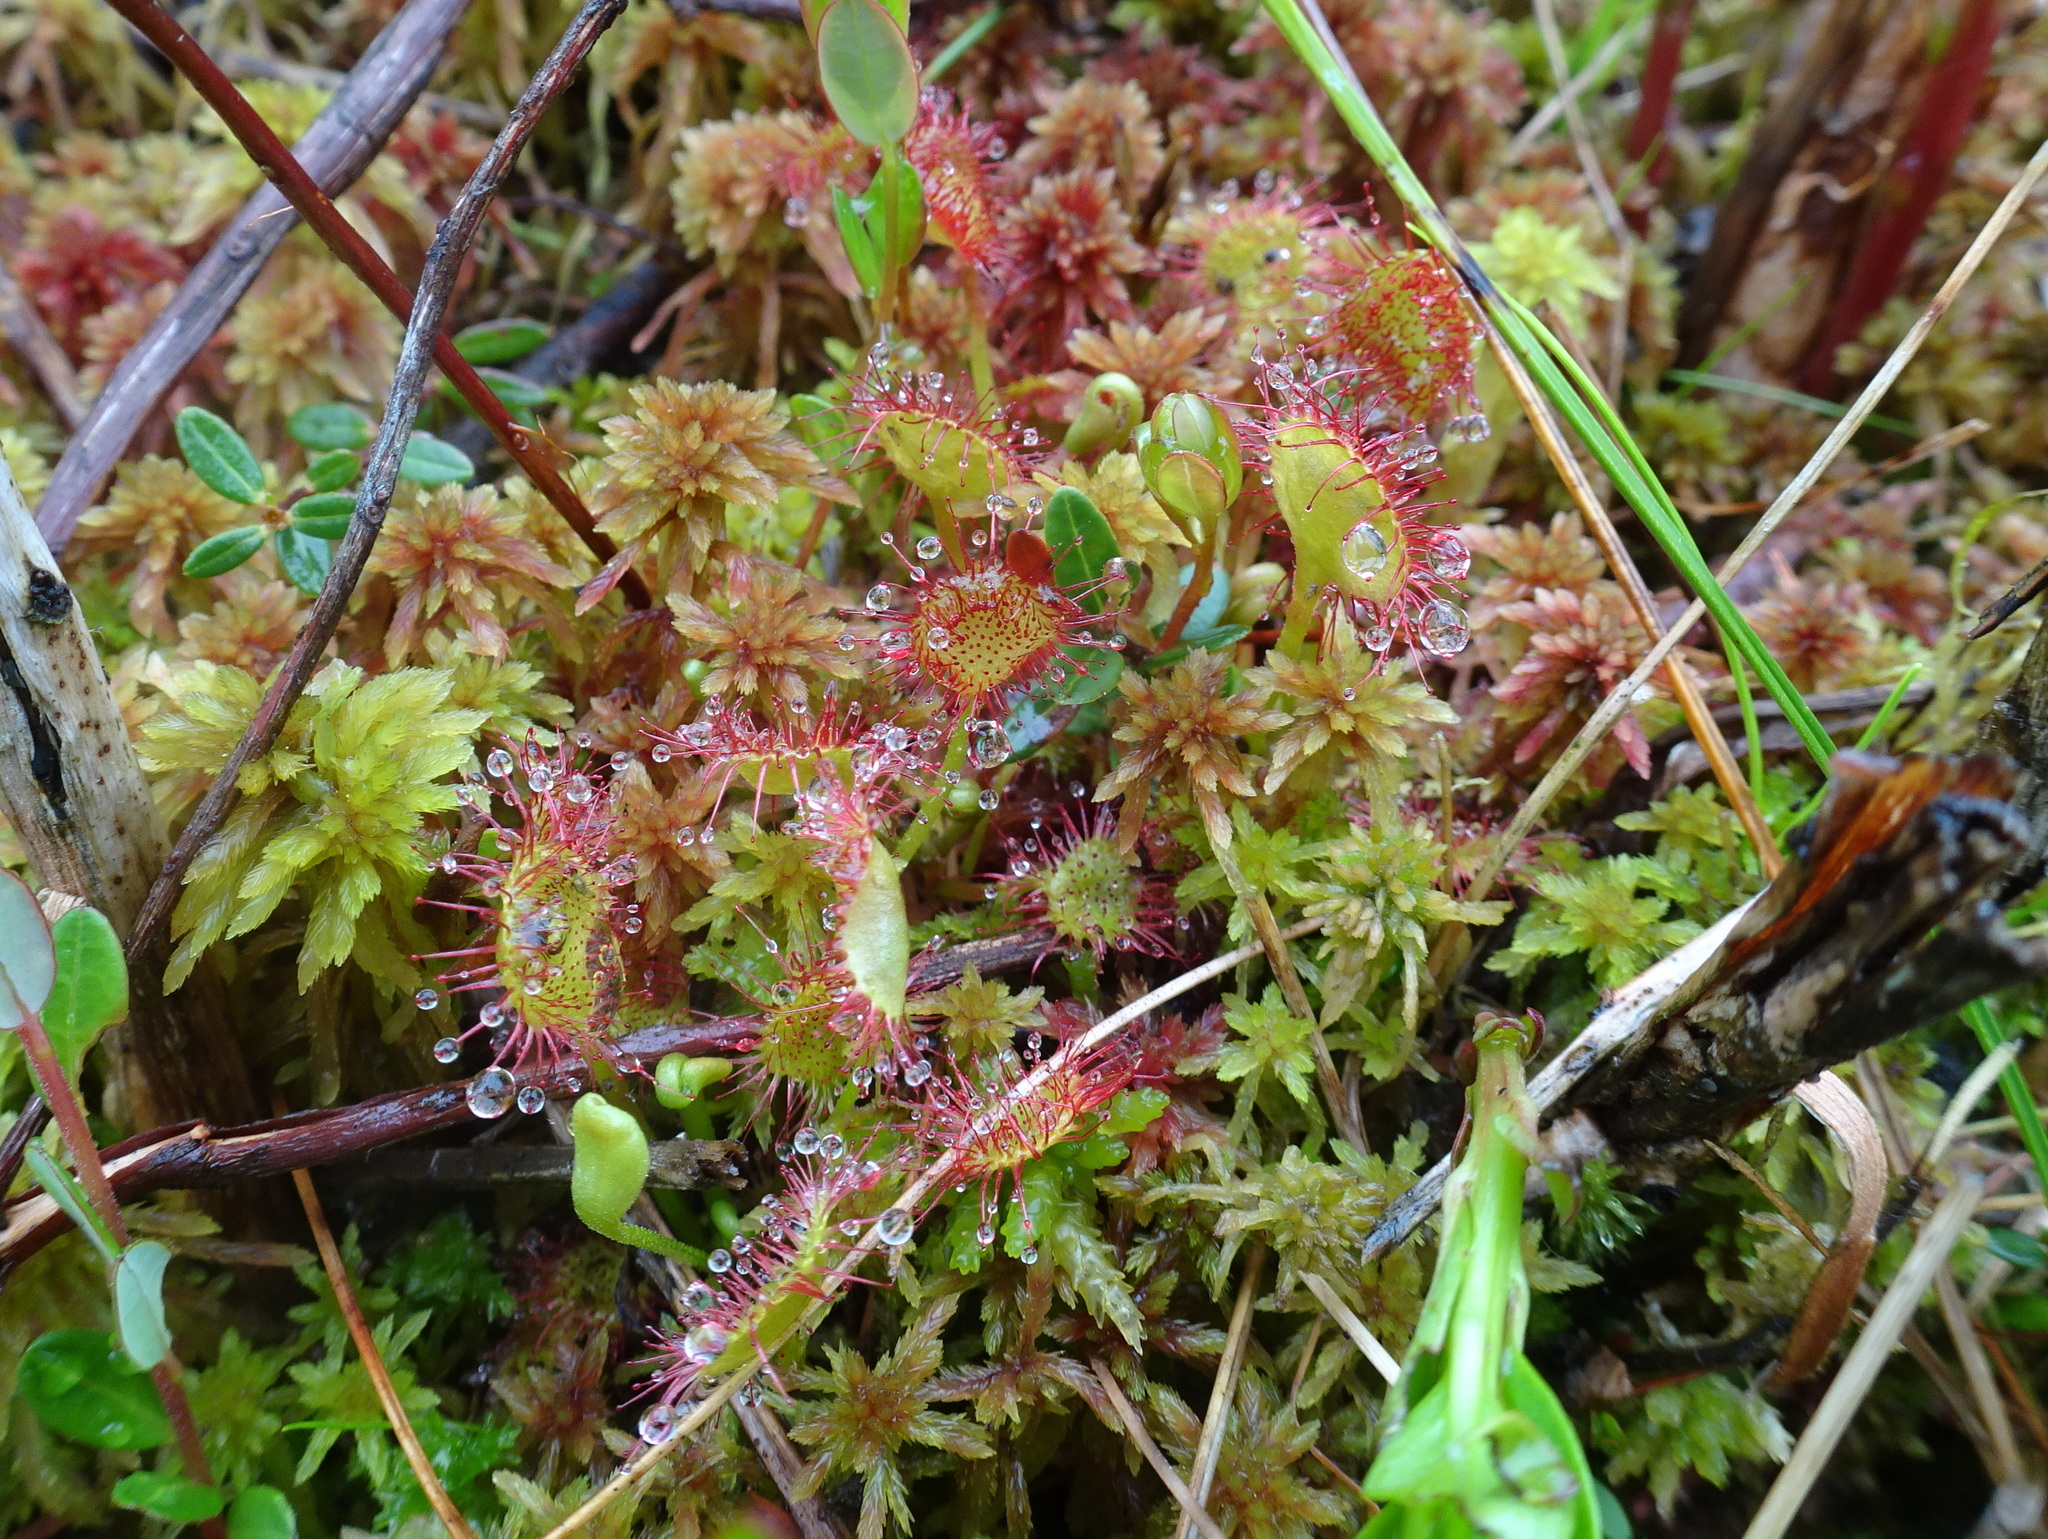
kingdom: Plantae
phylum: Tracheophyta
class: Magnoliopsida
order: Caryophyllales
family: Droseraceae
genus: Drosera
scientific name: Drosera rotundifolia
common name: Round-leaved sundew
